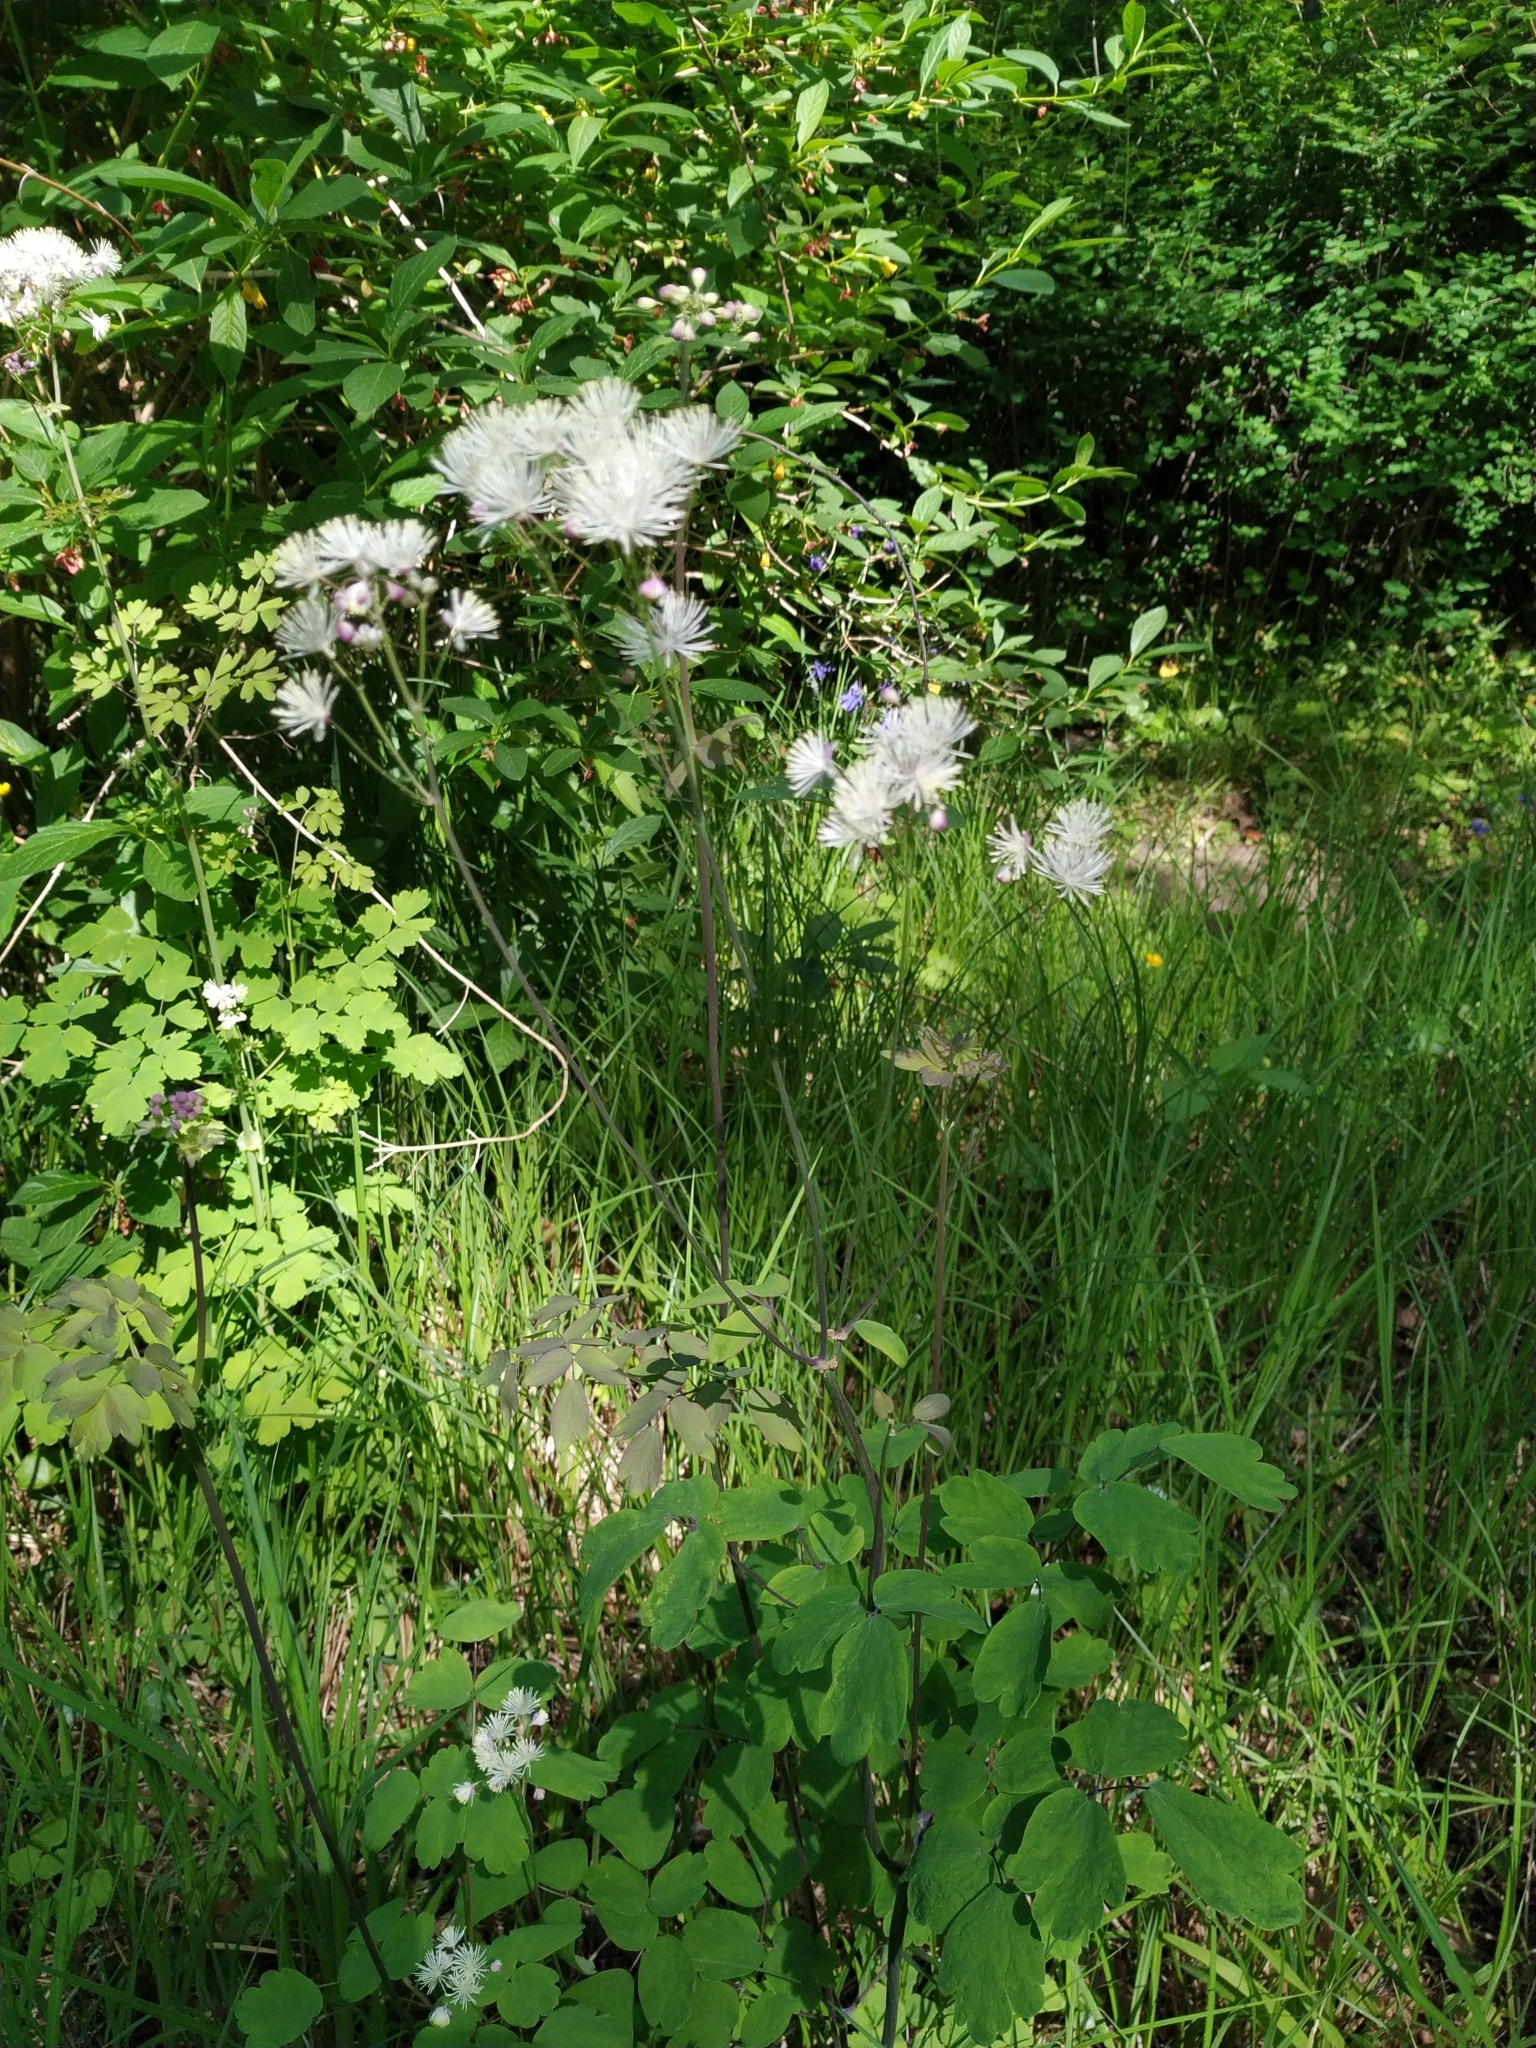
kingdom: Plantae
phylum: Tracheophyta
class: Magnoliopsida
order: Ranunculales
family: Ranunculaceae
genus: Thalictrum
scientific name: Thalictrum aquilegiifolium
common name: French meadow-rue
